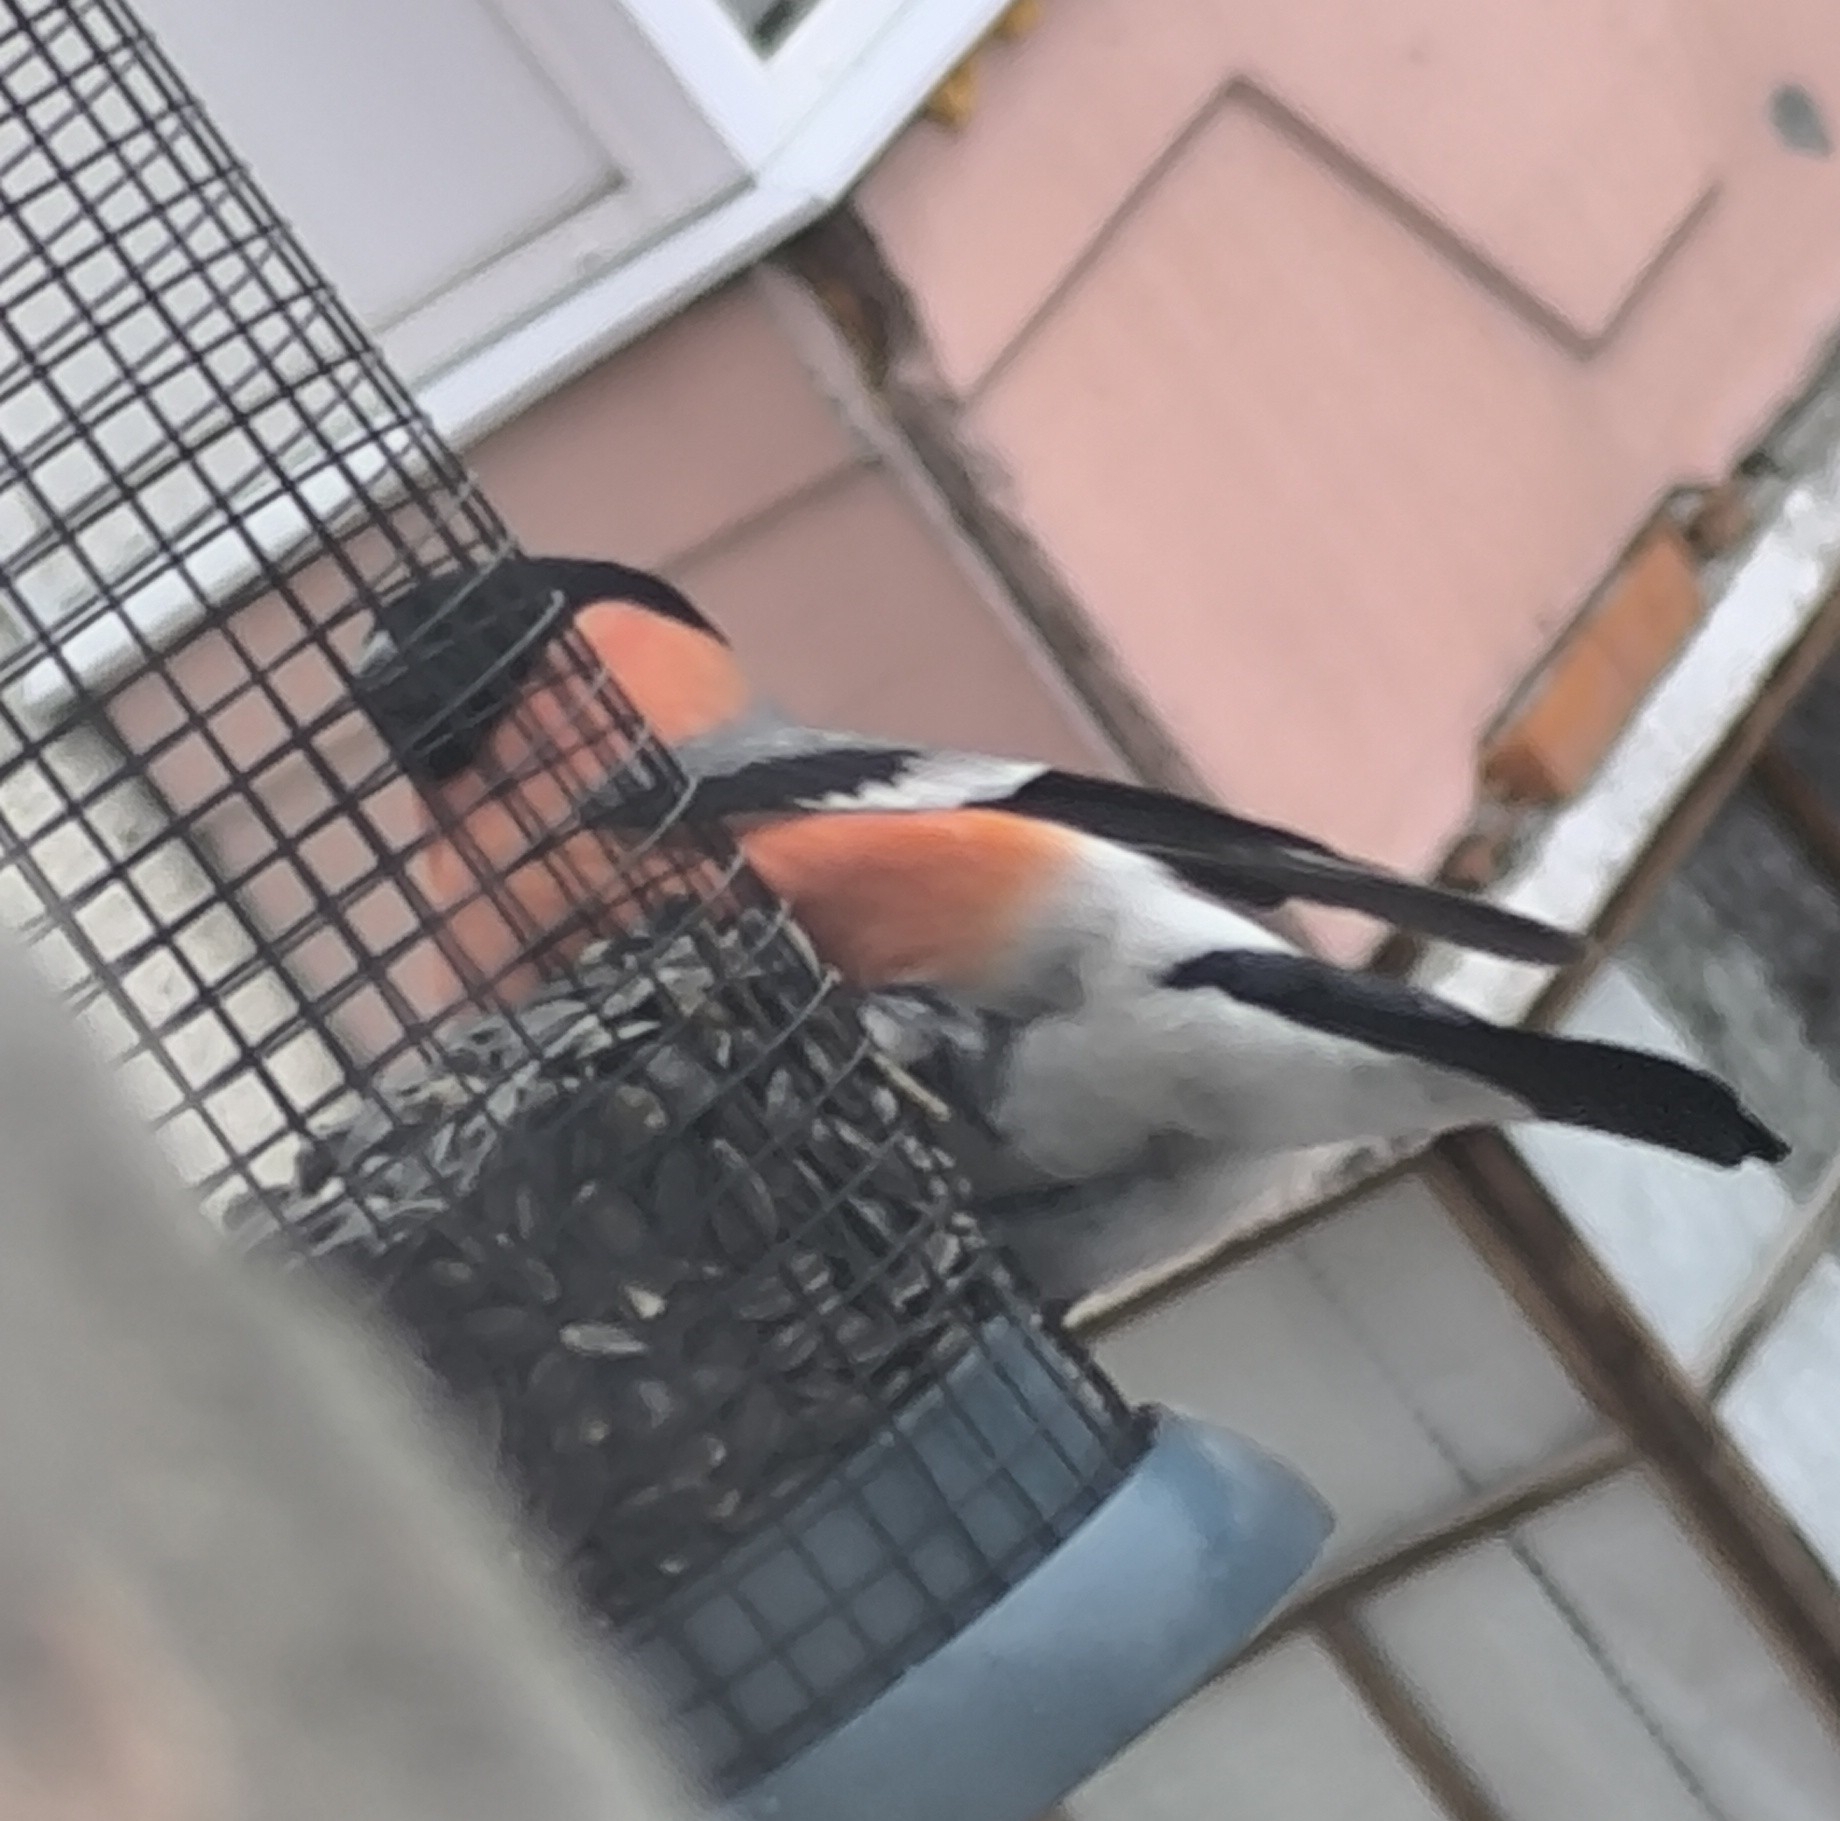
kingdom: Animalia
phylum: Chordata
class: Aves
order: Passeriformes
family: Fringillidae
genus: Pyrrhula
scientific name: Pyrrhula pyrrhula
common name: Eurasian bullfinch
